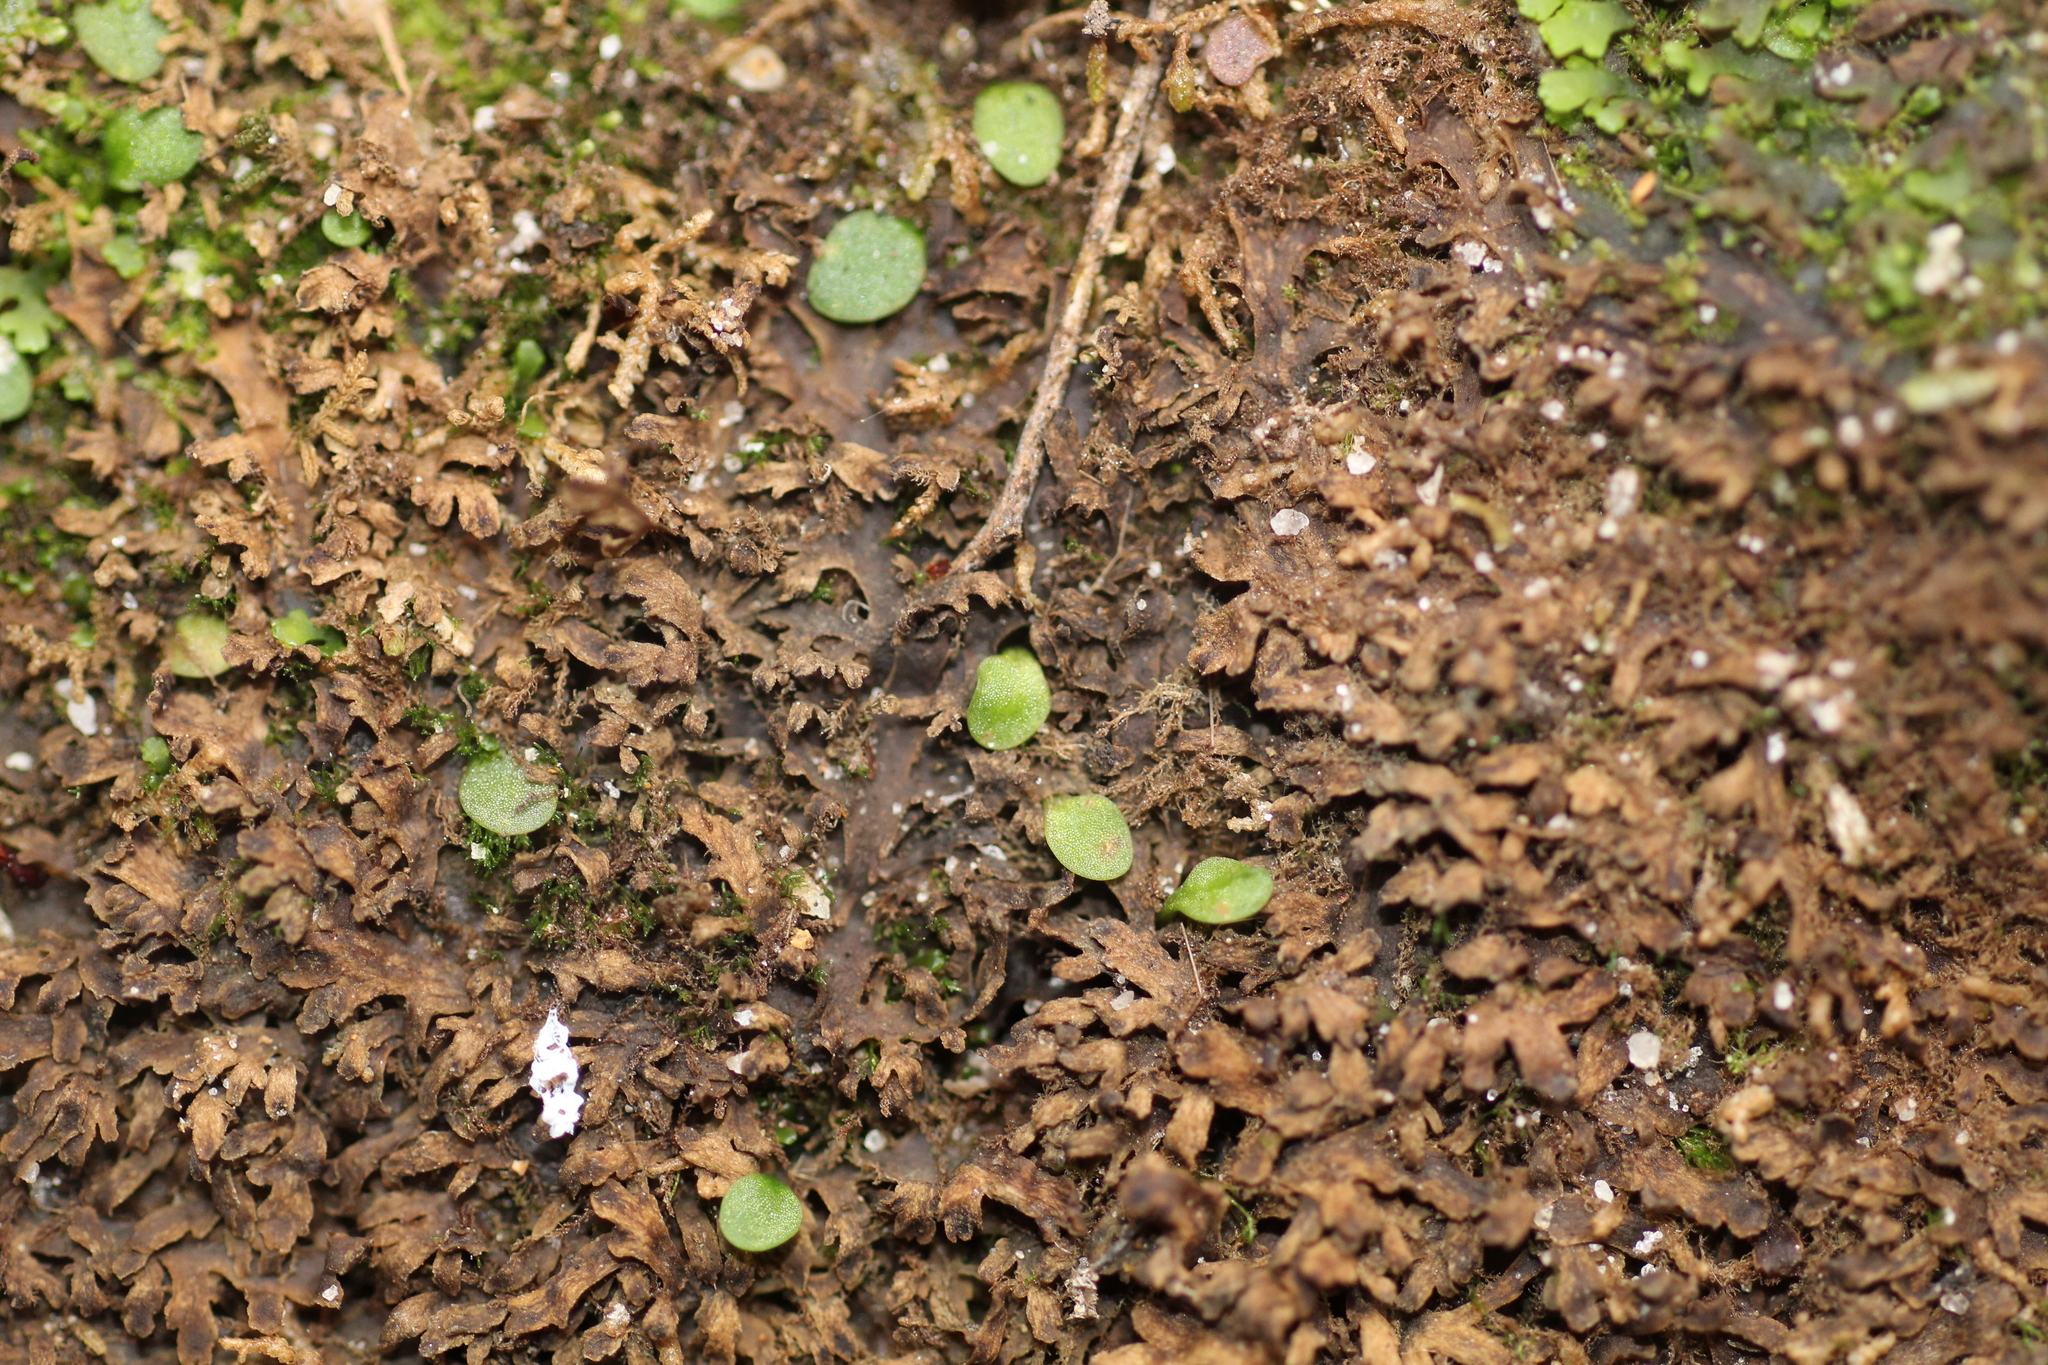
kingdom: Plantae
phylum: Tracheophyta
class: Magnoliopsida
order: Lamiales
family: Lentibulariaceae
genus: Utricularia
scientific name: Utricularia paulineae
